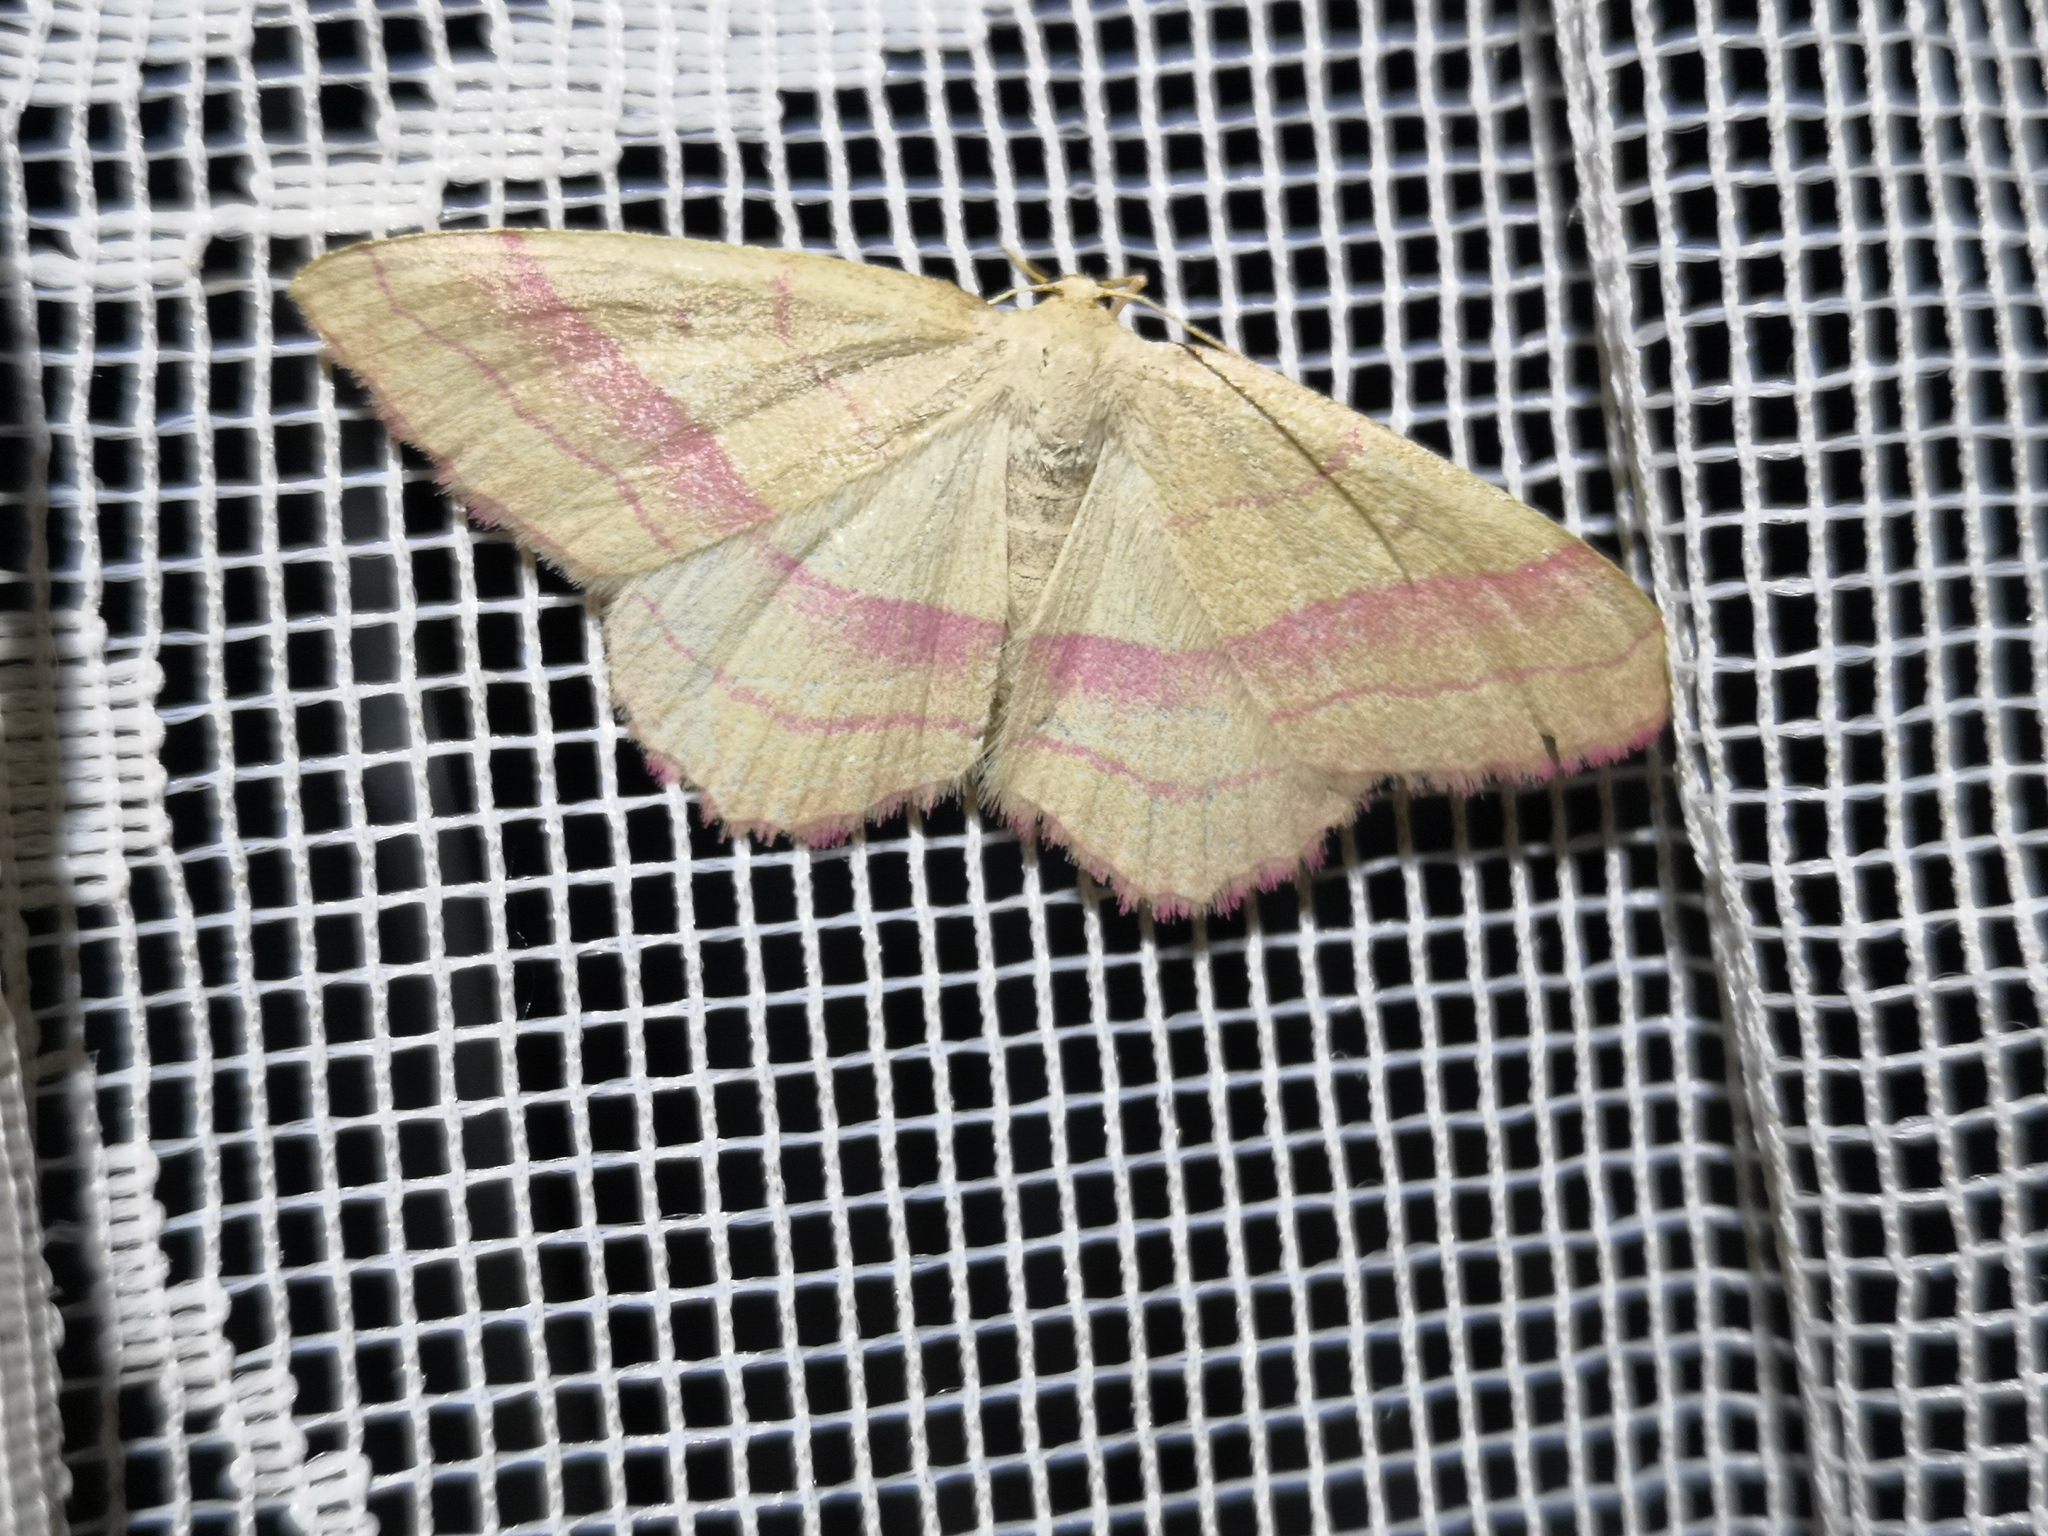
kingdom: Animalia
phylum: Arthropoda
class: Insecta
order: Lepidoptera
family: Geometridae
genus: Rhodostrophia
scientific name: Rhodostrophia vibicaria
